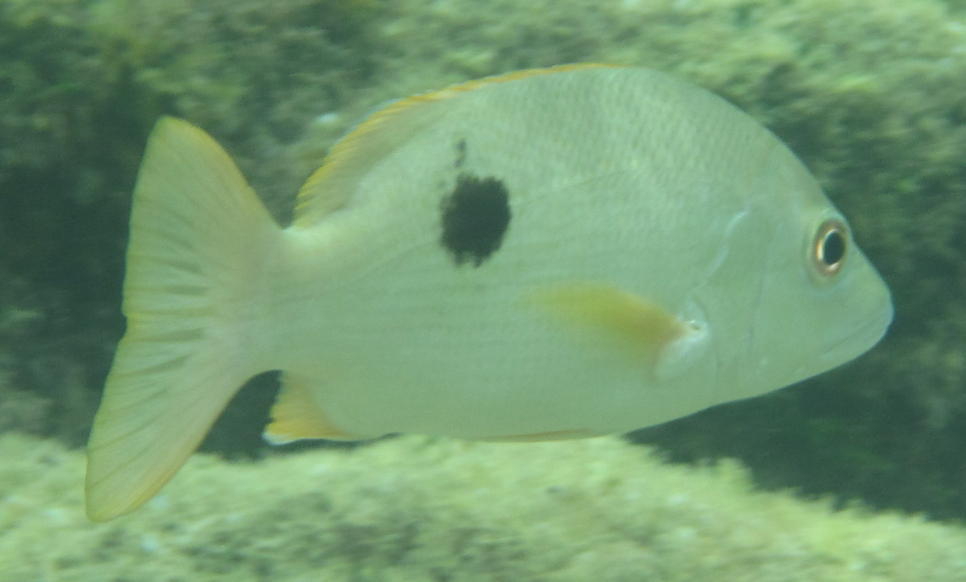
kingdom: Animalia
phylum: Chordata
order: Perciformes
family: Lutjanidae
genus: Lutjanus
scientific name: Lutjanus monostigma
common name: Onespot snapper
